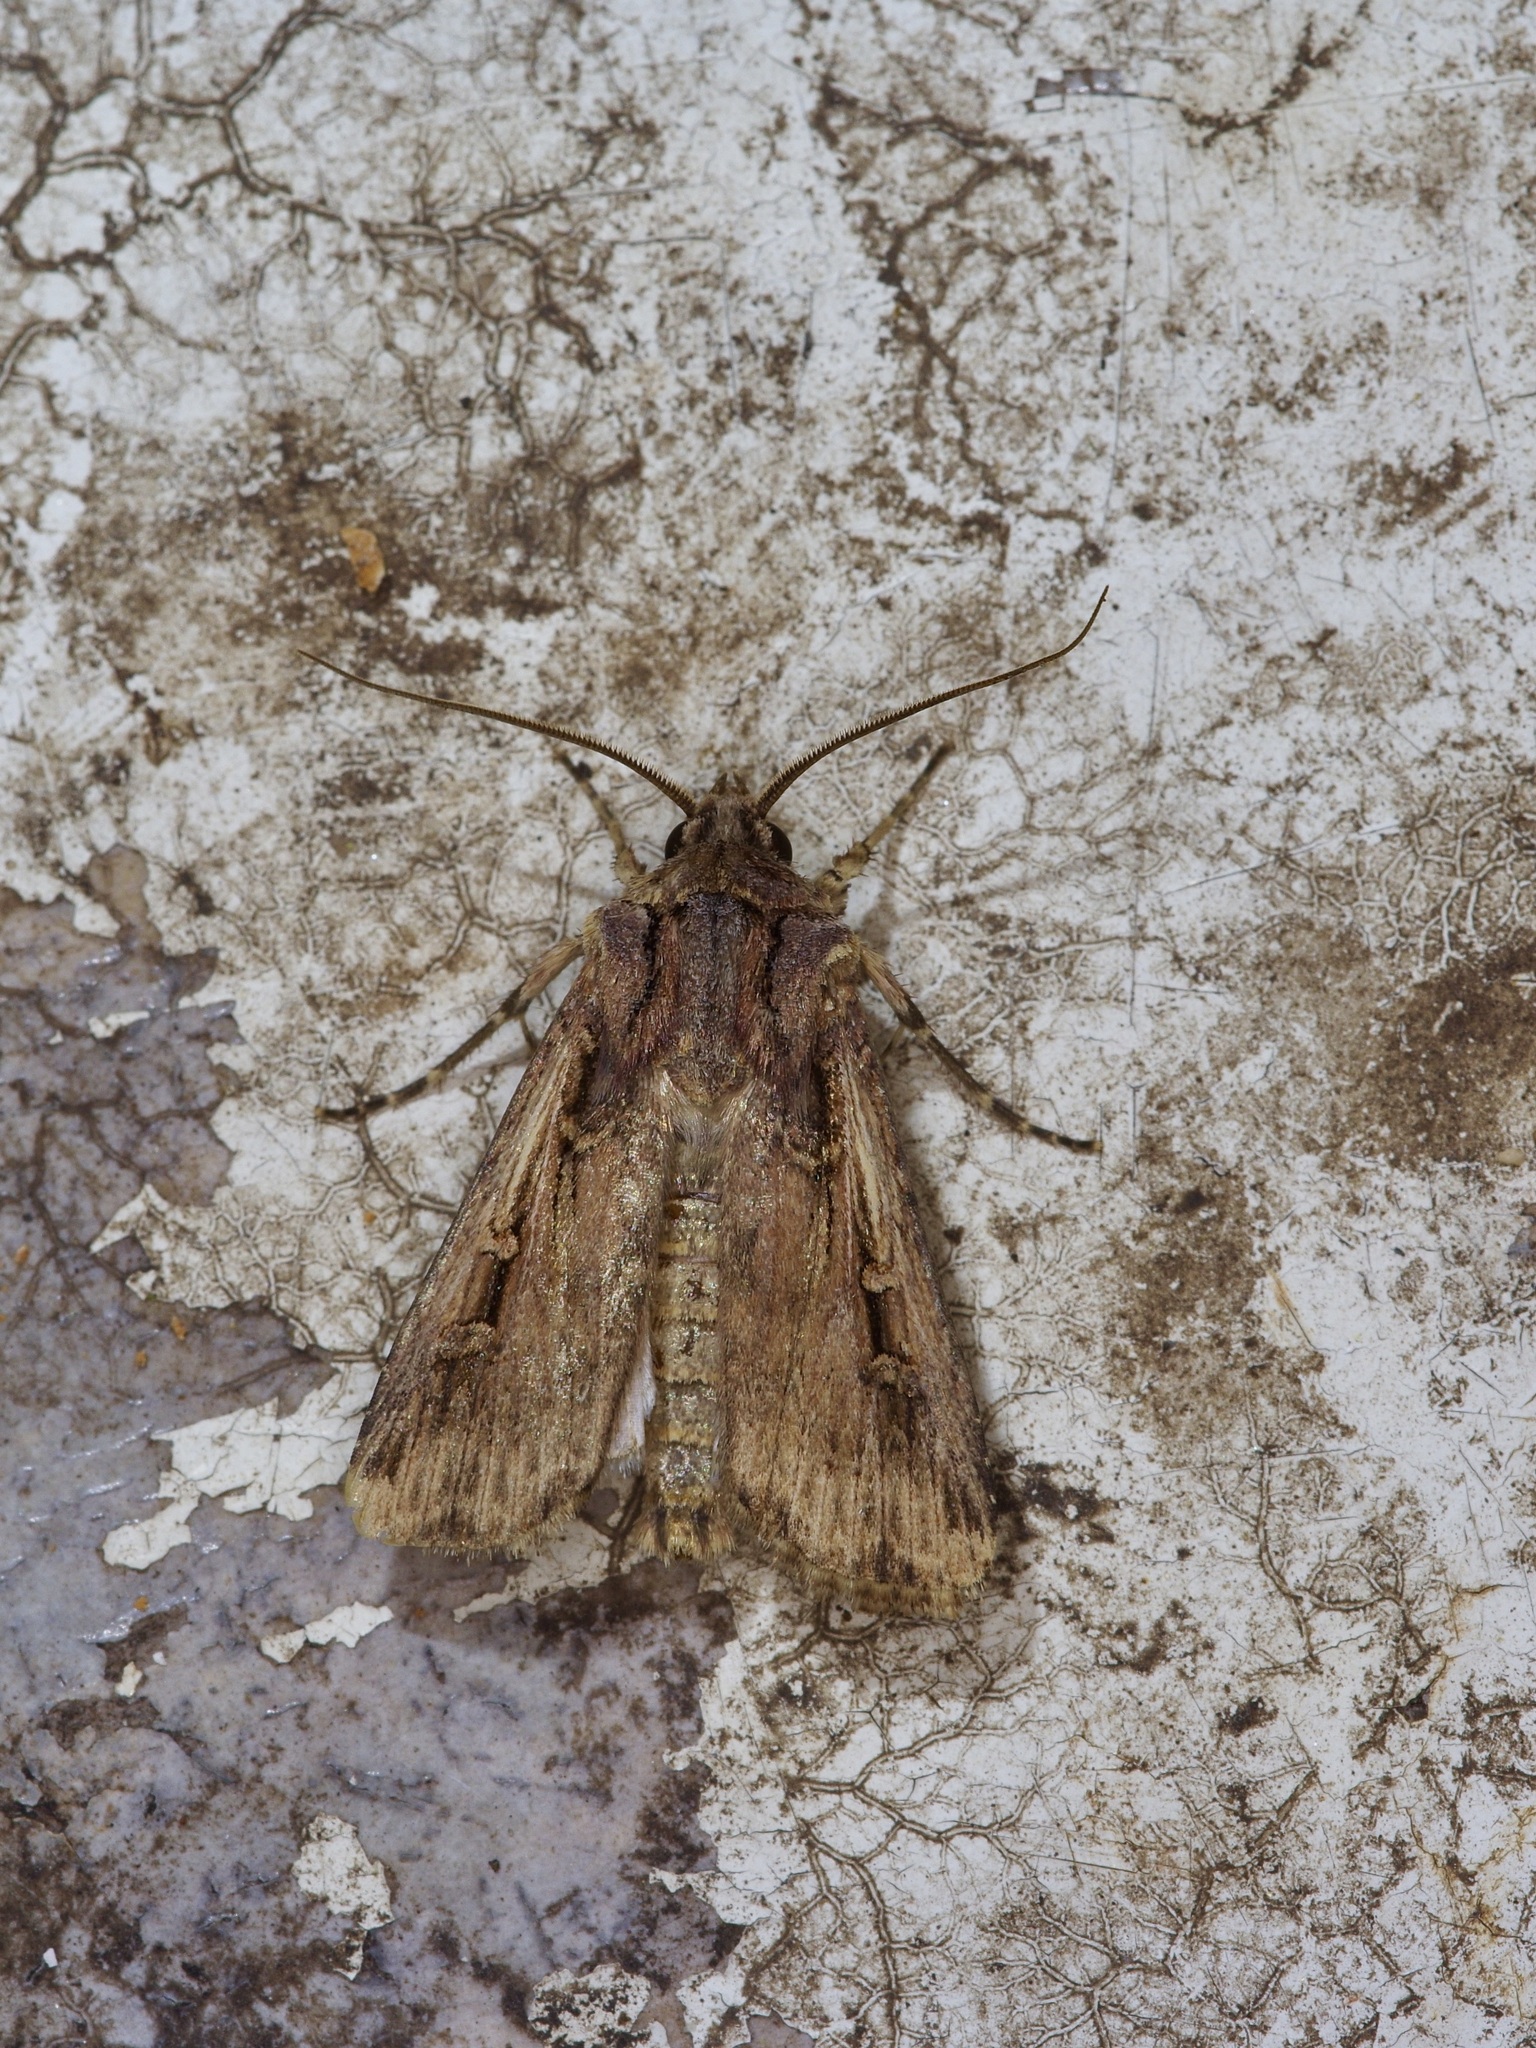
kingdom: Animalia
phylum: Arthropoda
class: Insecta
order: Lepidoptera
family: Noctuidae
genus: Feltia
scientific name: Feltia subterranea
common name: Granulate cutworm
